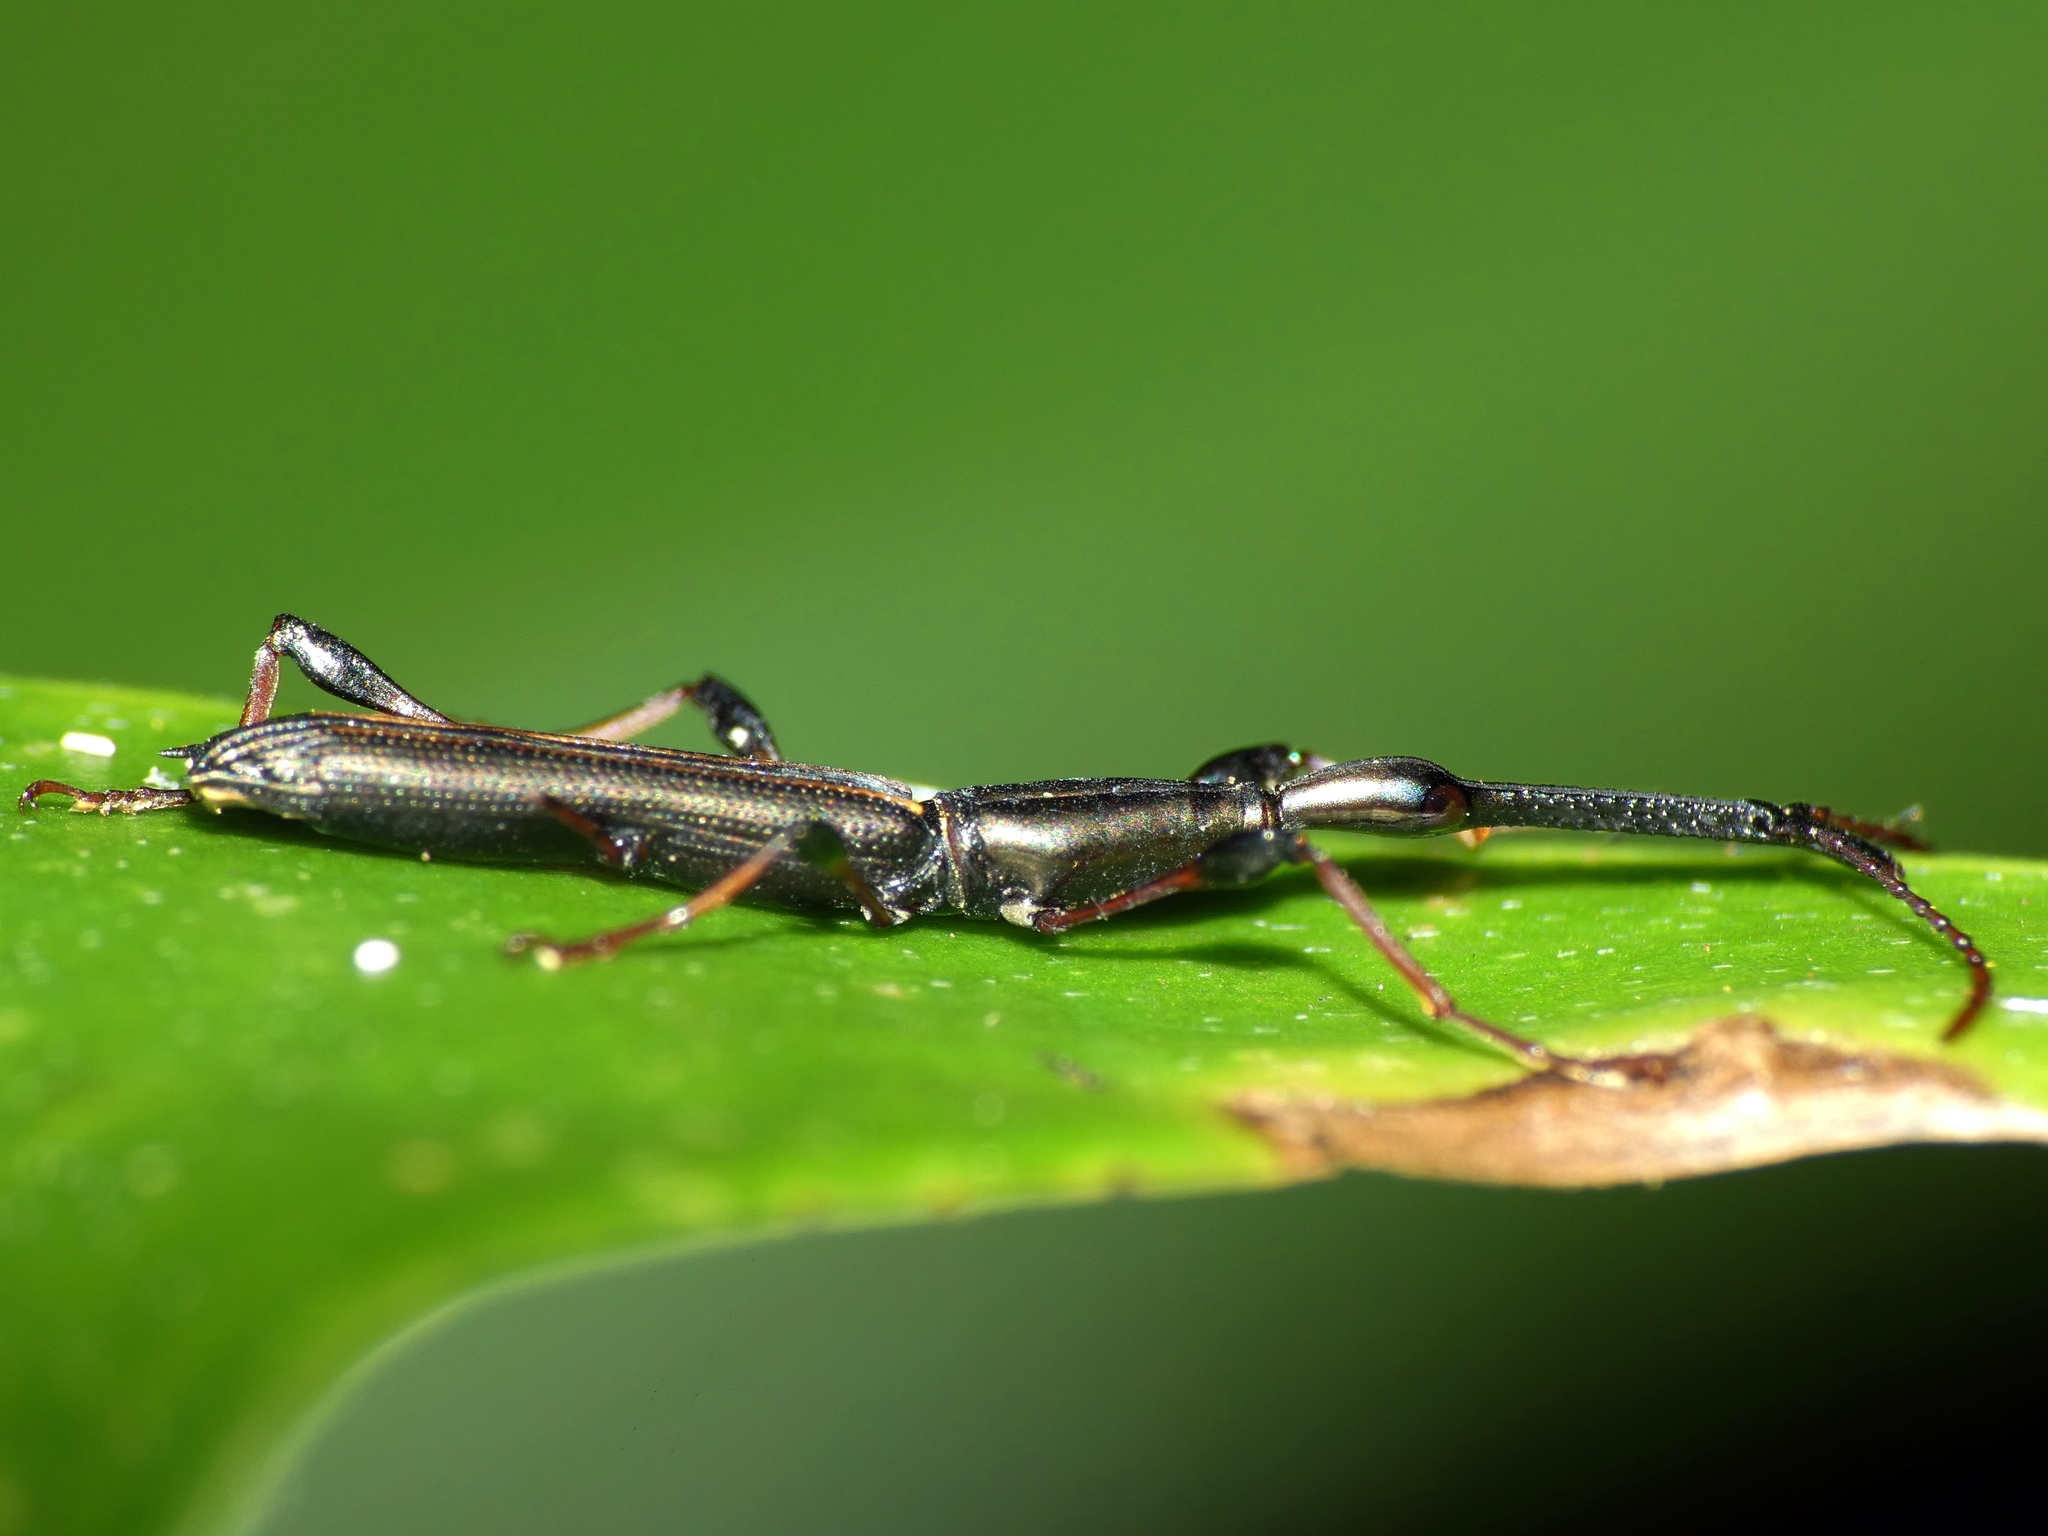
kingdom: Animalia
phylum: Arthropoda
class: Insecta
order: Coleoptera
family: Brentidae
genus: Ithystenus
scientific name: Ithystenus hollandiae
